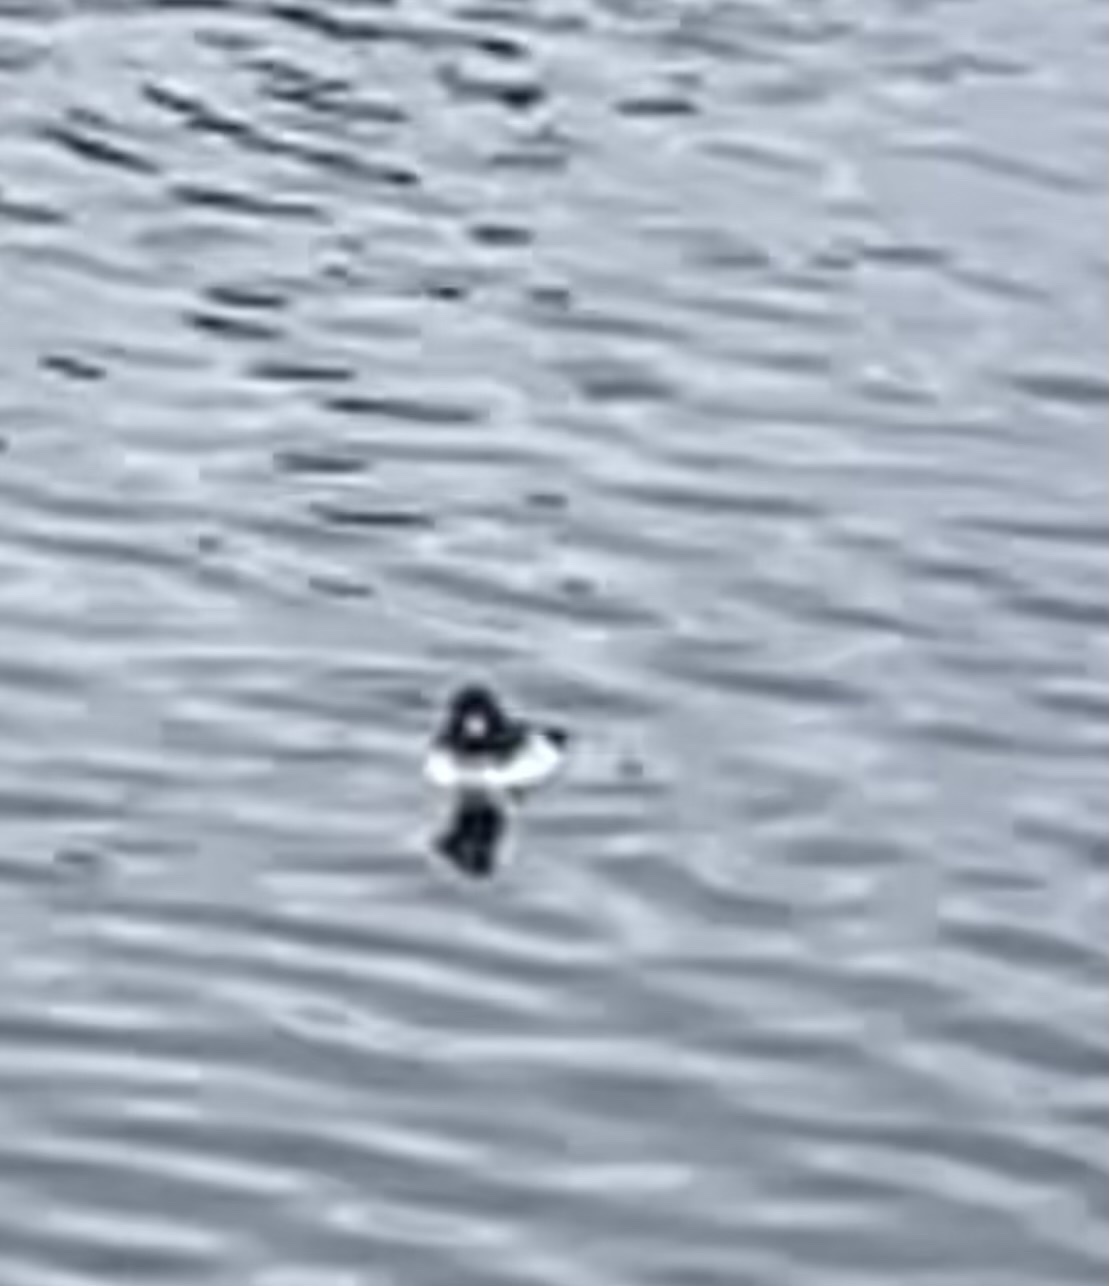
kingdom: Animalia
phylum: Chordata
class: Aves
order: Anseriformes
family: Anatidae
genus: Bucephala
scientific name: Bucephala clangula
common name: Common goldeneye
